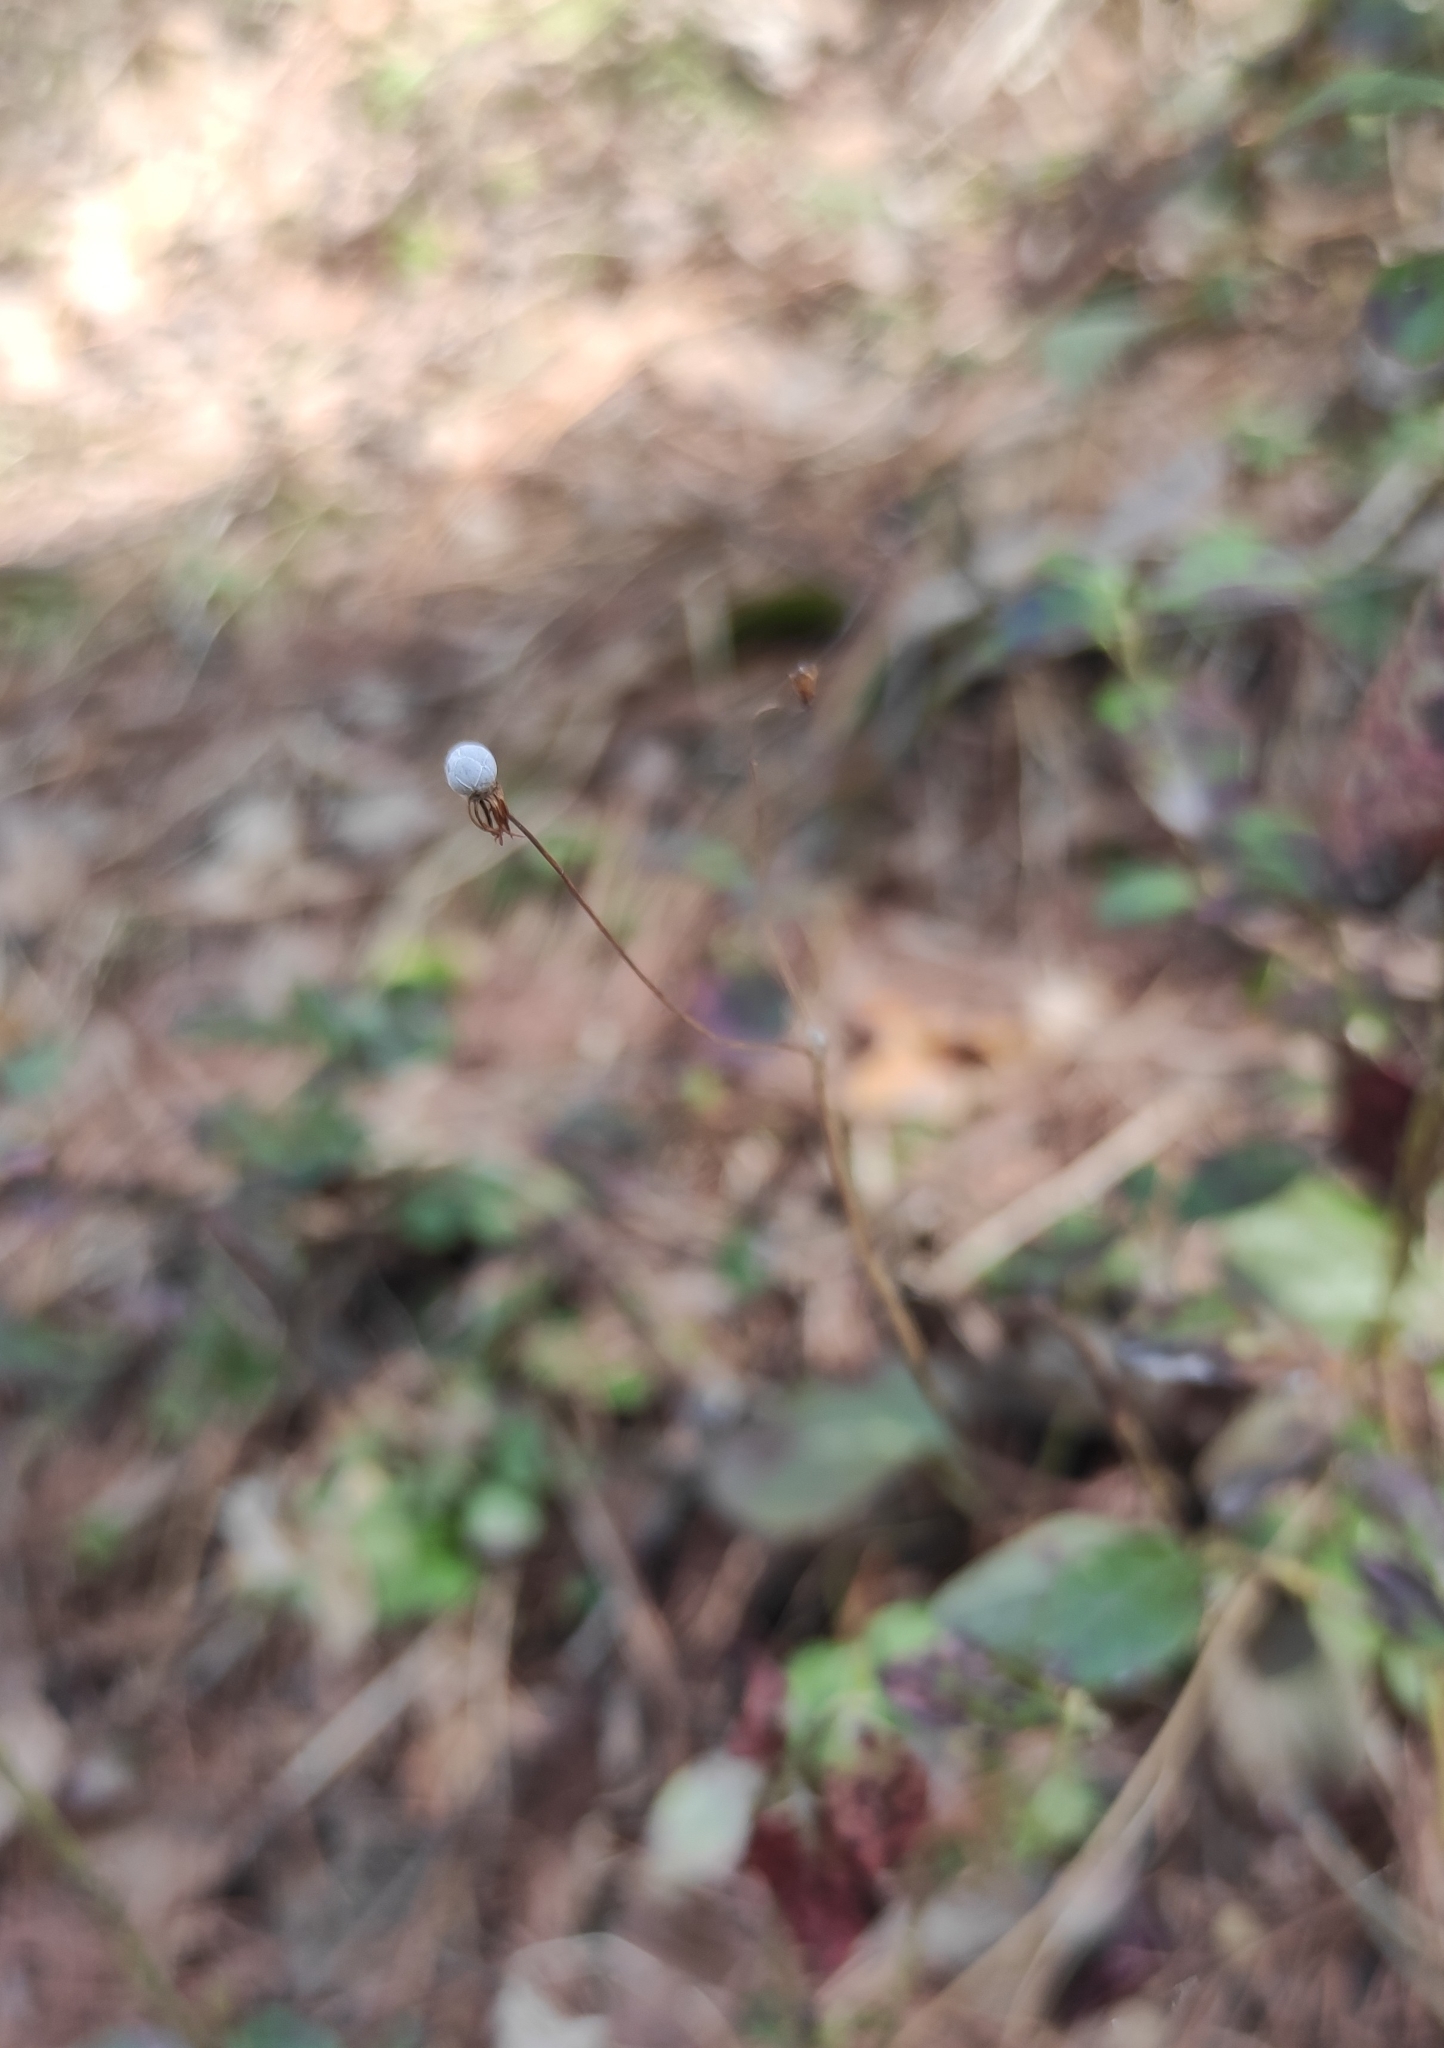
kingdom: Plantae
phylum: Tracheophyta
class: Magnoliopsida
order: Ericales
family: Primulaceae
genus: Lysimachia
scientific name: Lysimachia europaea
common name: Arctic starflower
